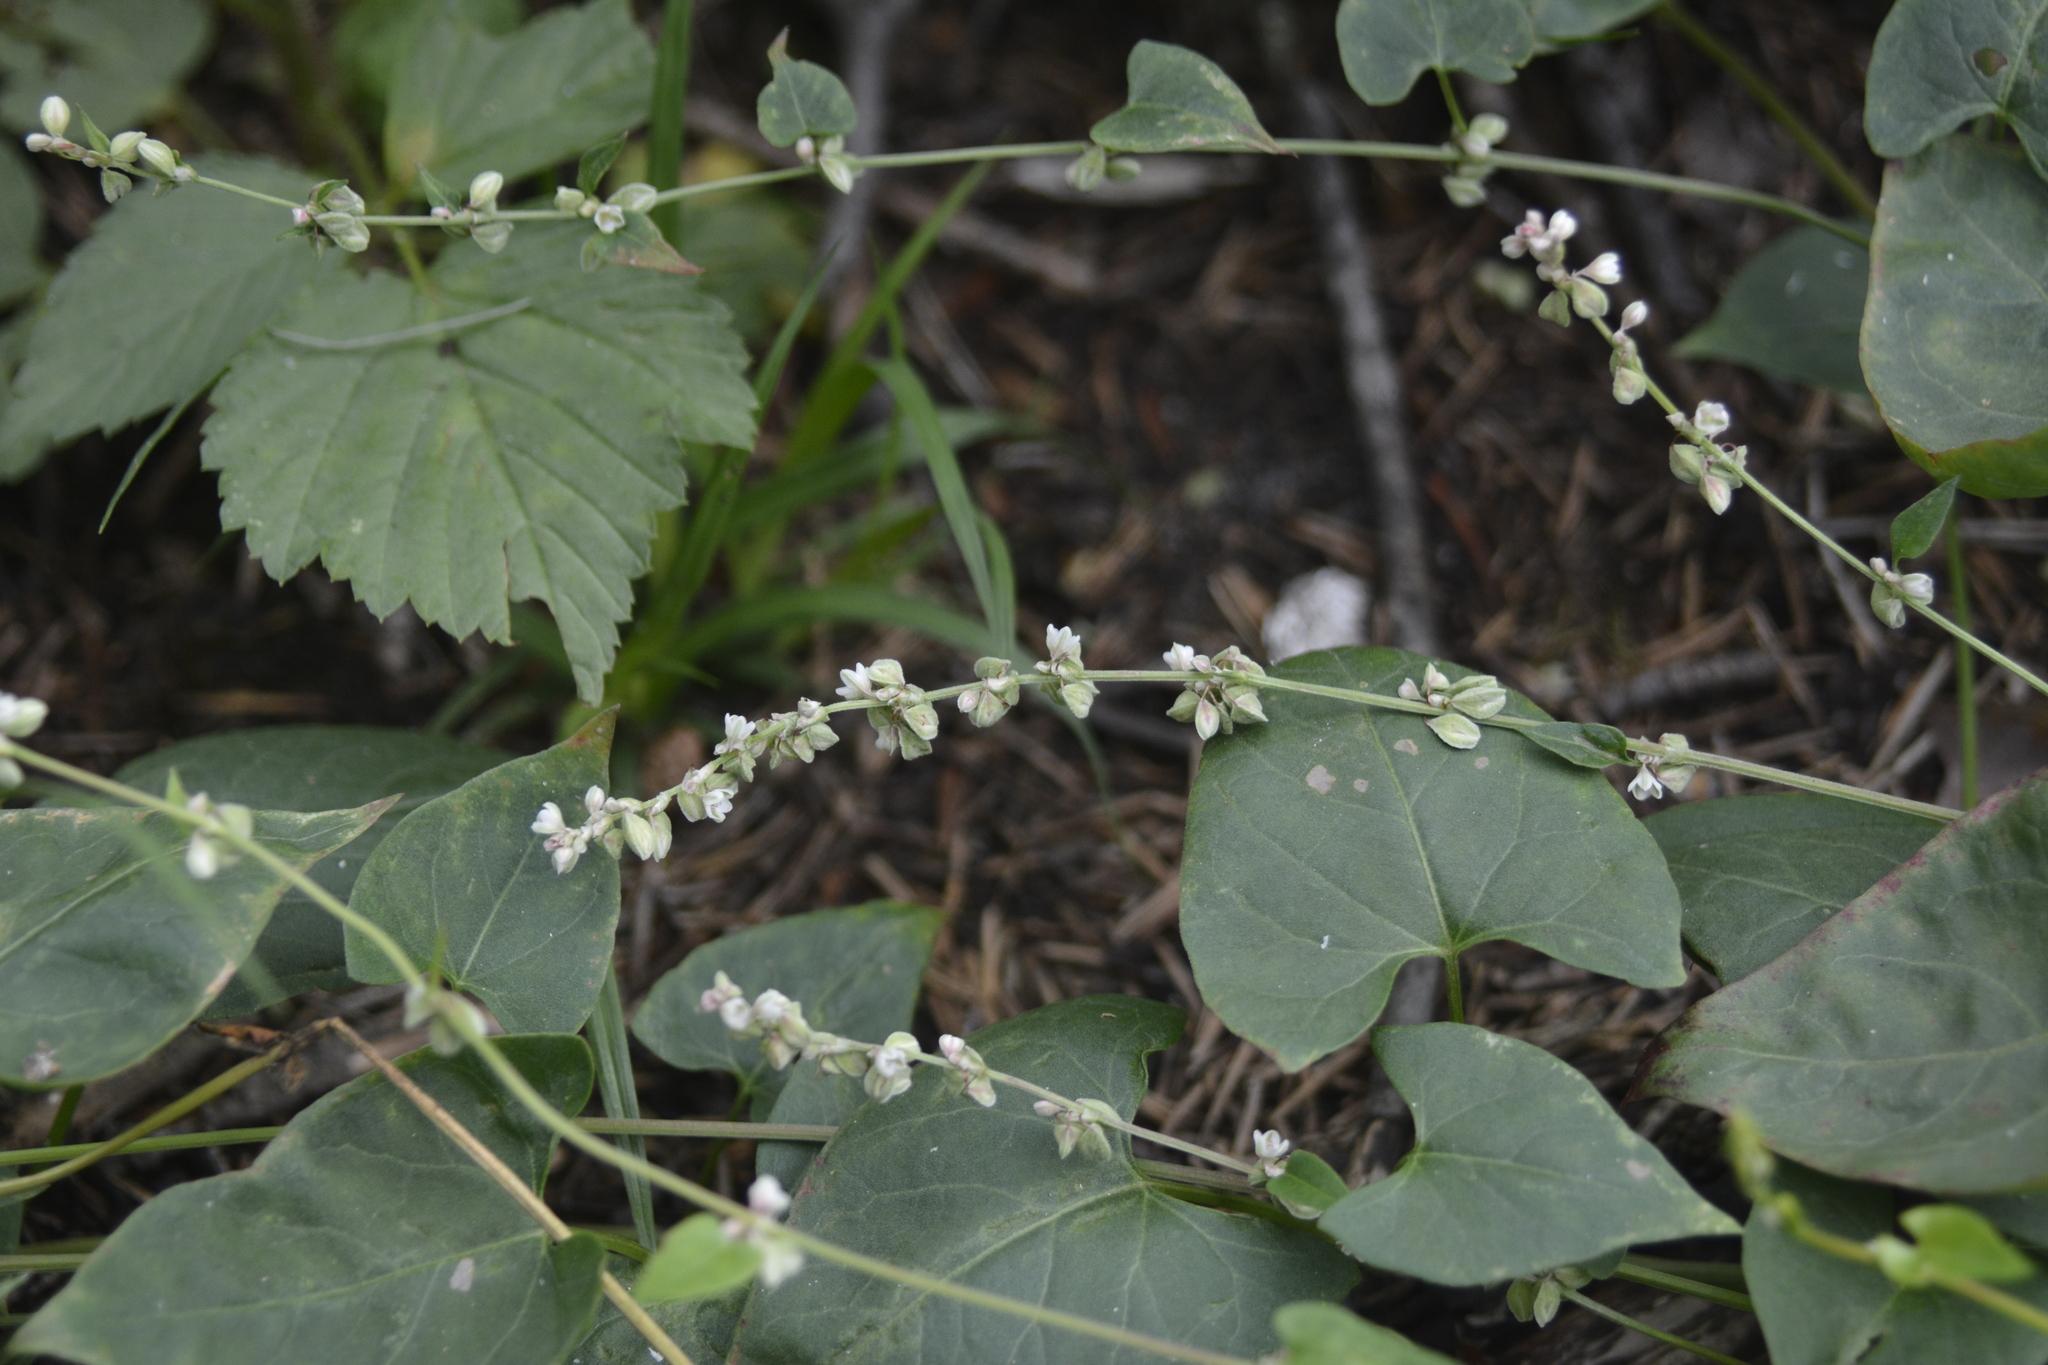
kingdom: Plantae
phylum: Tracheophyta
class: Magnoliopsida
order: Caryophyllales
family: Polygonaceae
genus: Fallopia
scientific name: Fallopia convolvulus
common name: Black bindweed
